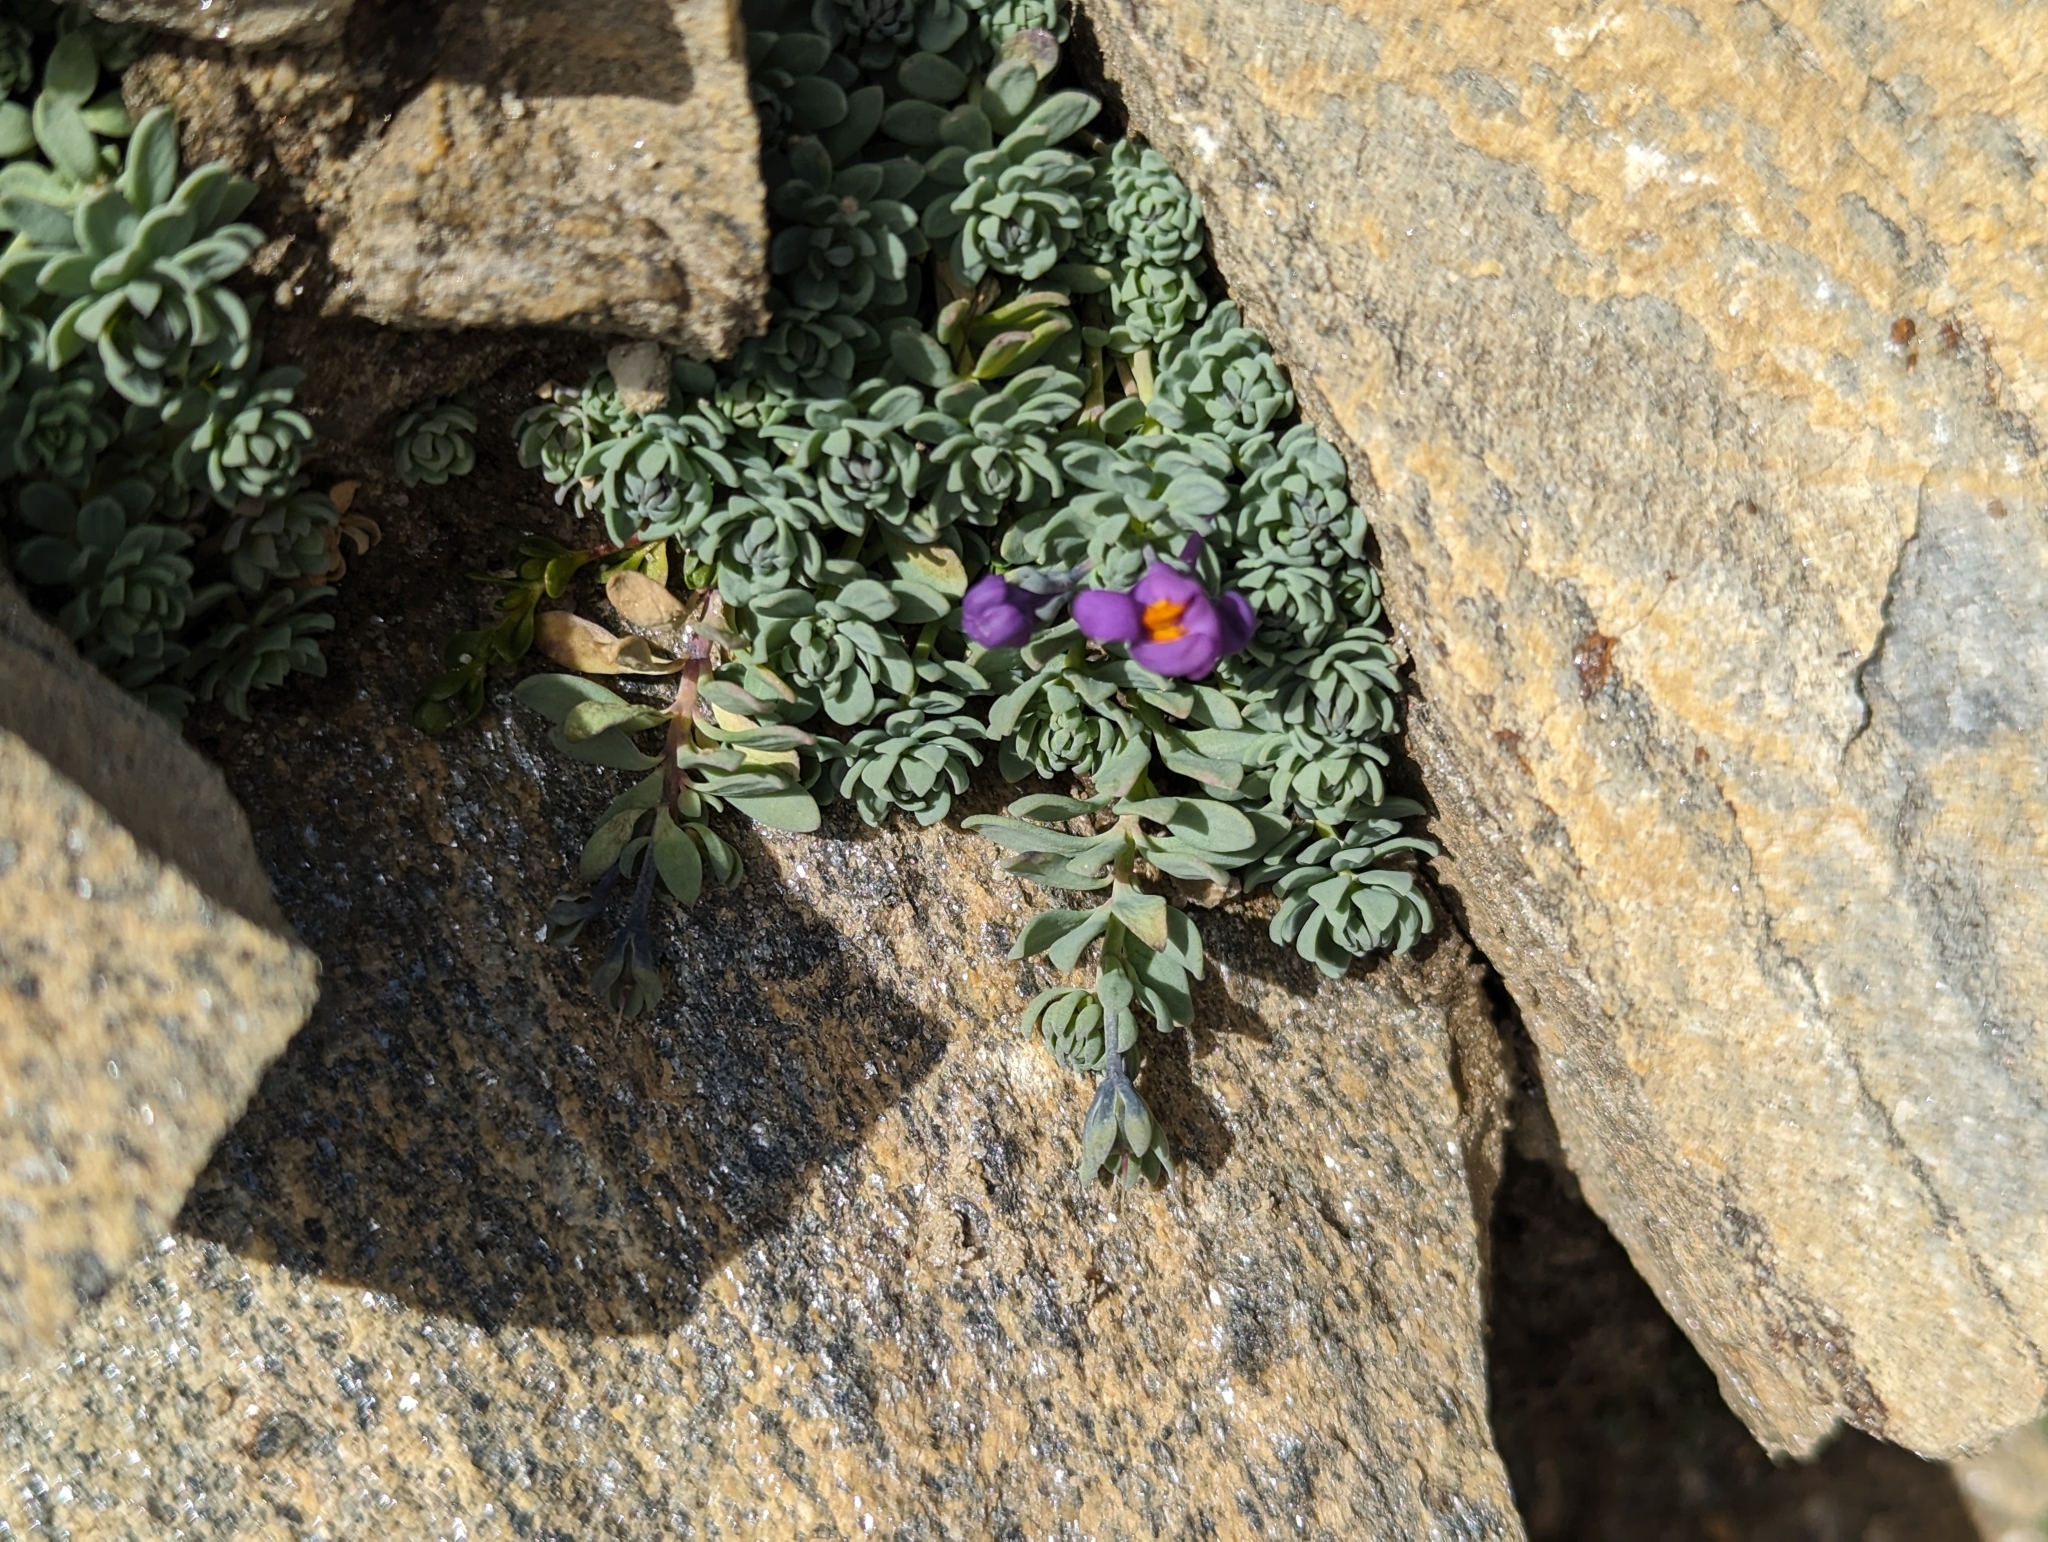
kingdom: Plantae
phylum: Tracheophyta
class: Magnoliopsida
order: Lamiales
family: Plantaginaceae
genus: Linaria
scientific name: Linaria alpina
